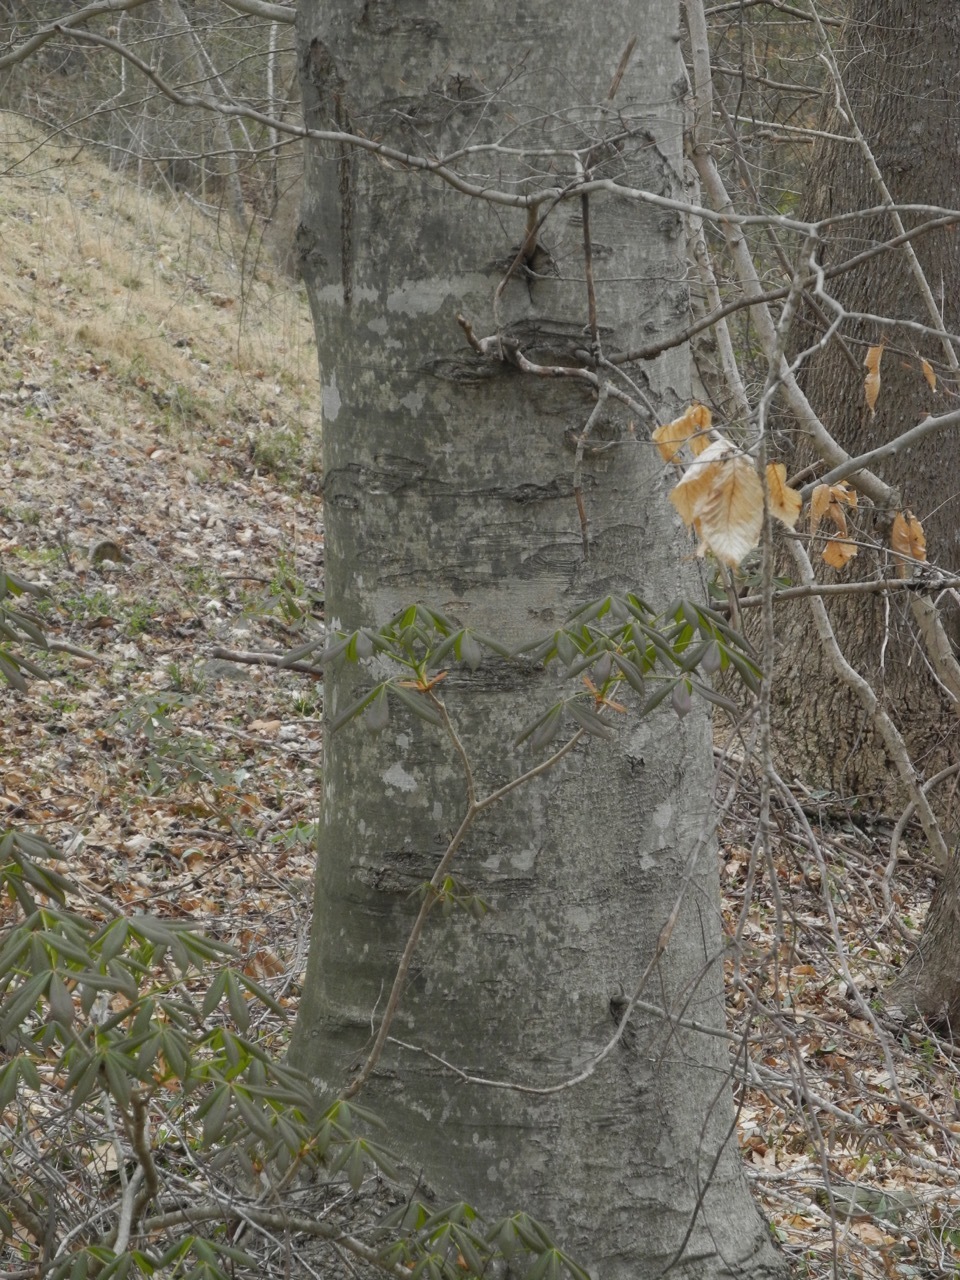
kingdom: Plantae
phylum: Tracheophyta
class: Magnoliopsida
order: Fagales
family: Fagaceae
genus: Fagus
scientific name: Fagus grandifolia
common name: American beech
